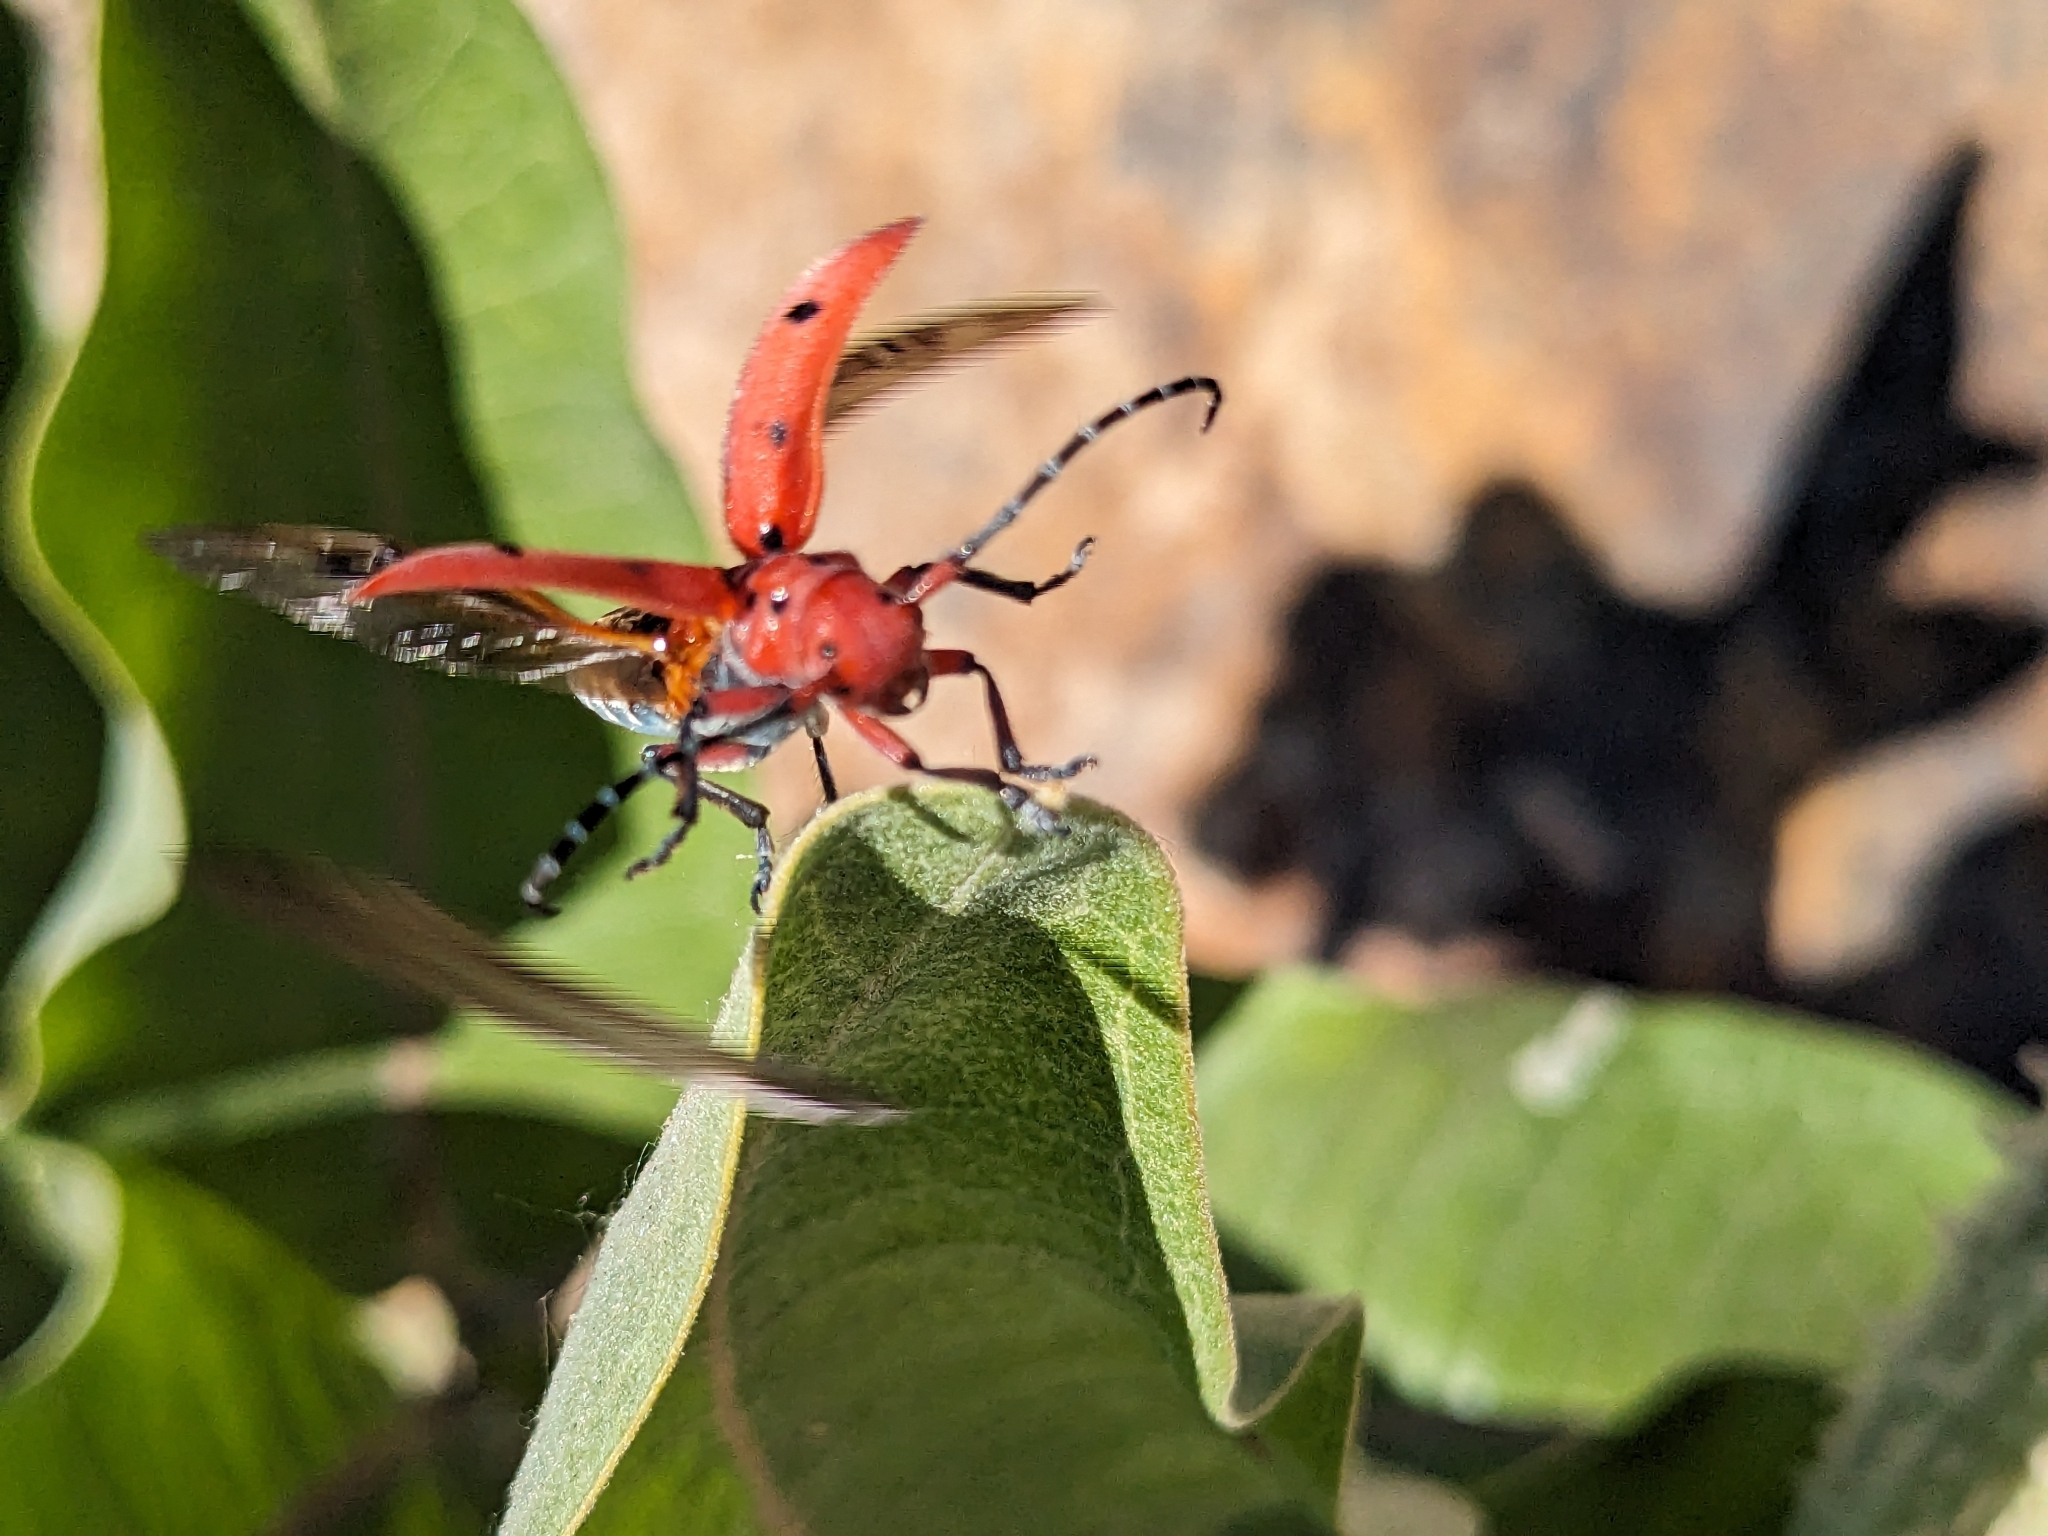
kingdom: Animalia
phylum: Arthropoda
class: Insecta
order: Coleoptera
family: Cerambycidae
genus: Tetraopes
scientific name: Tetraopes femoratus
